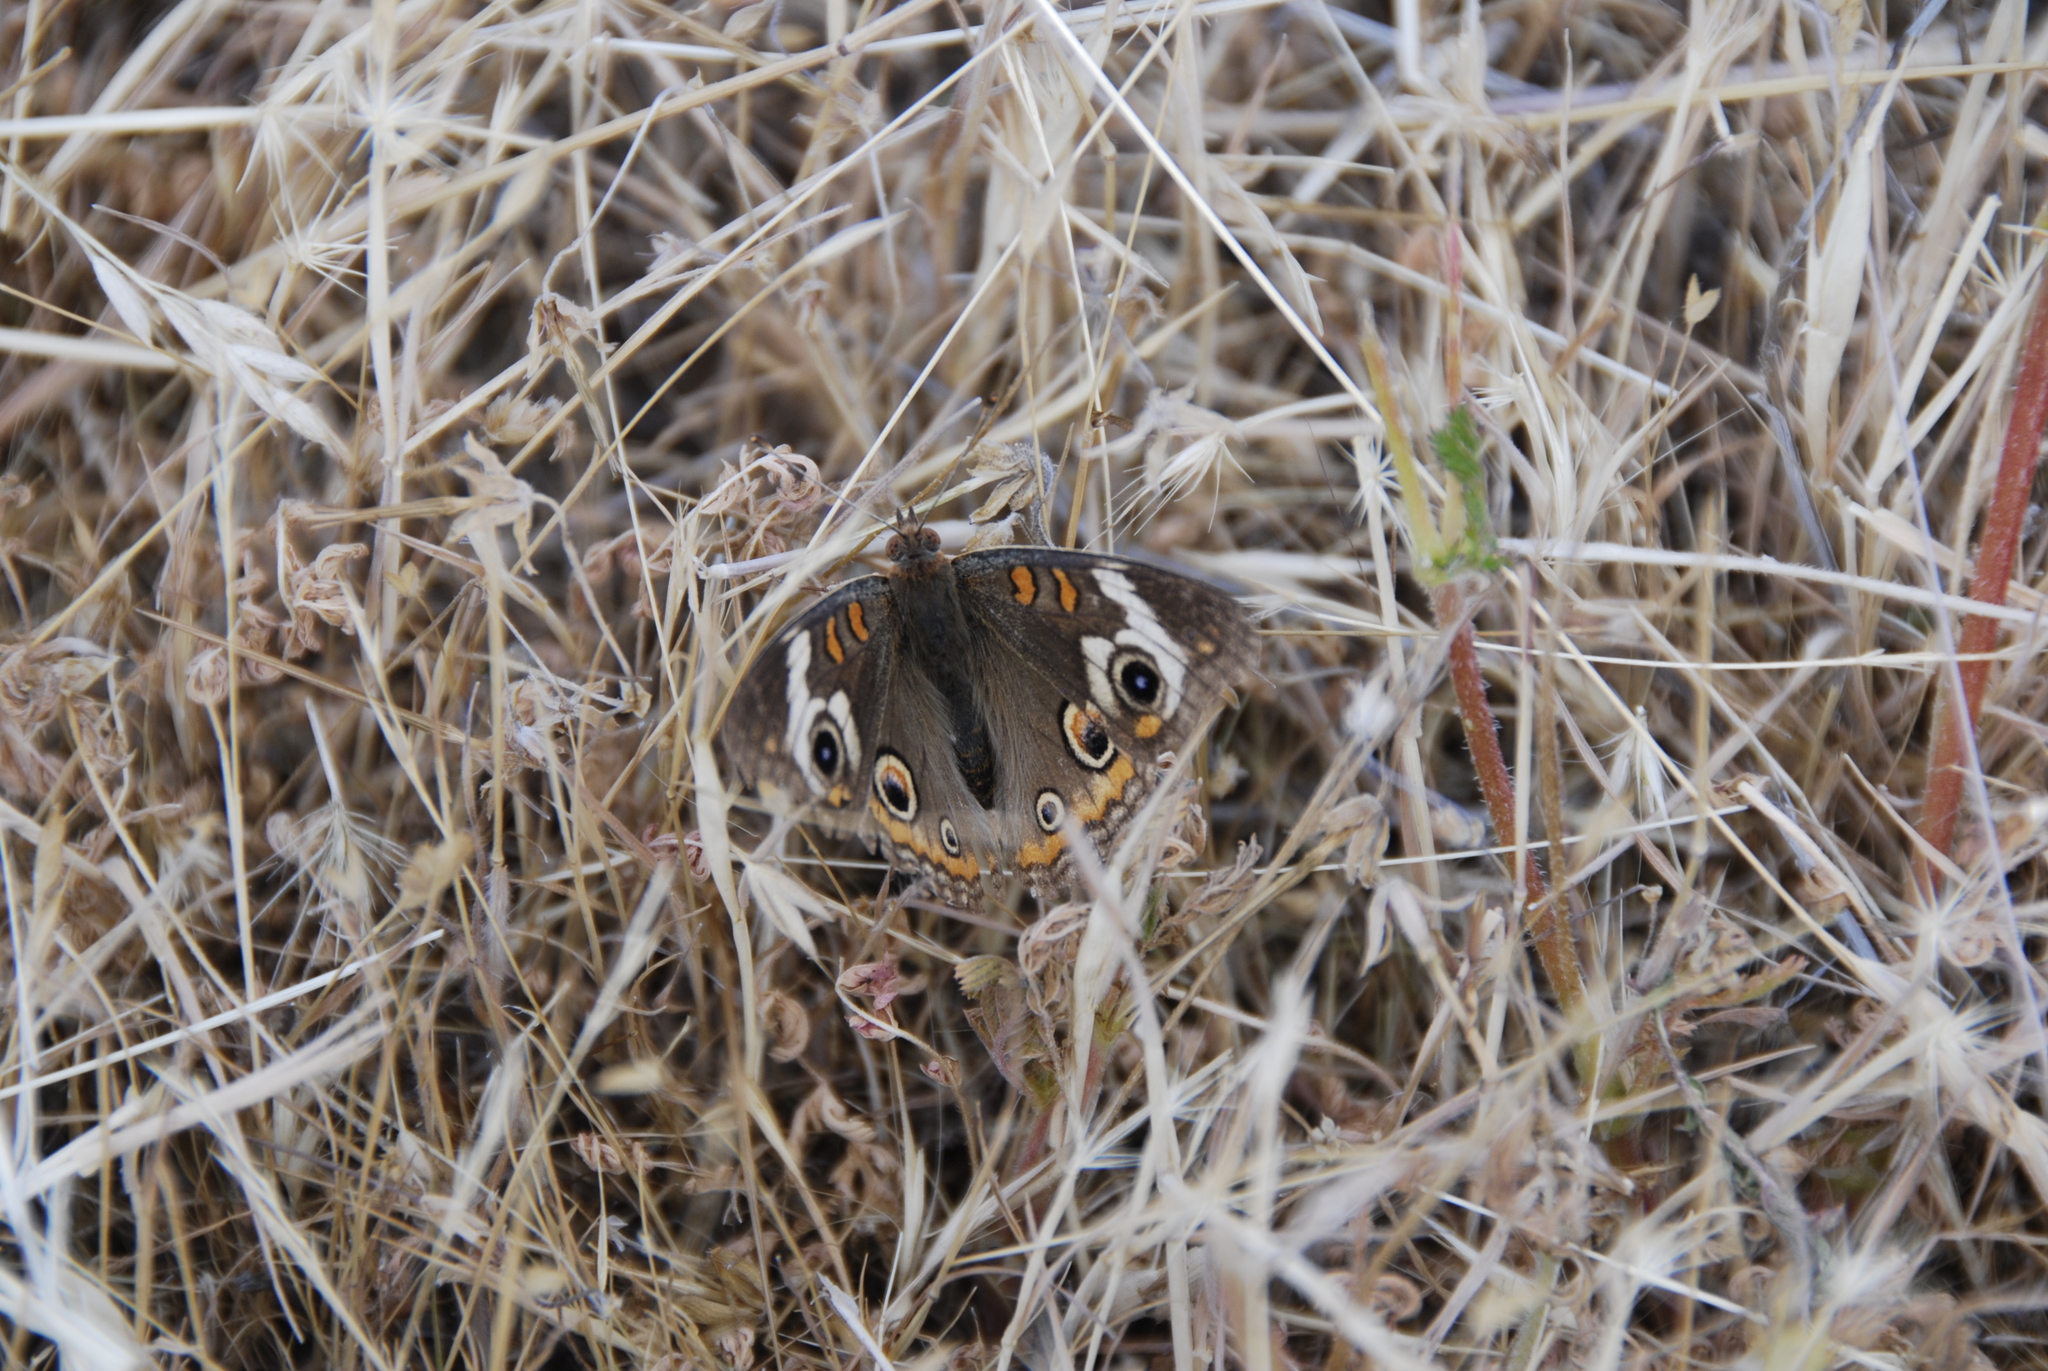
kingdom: Animalia
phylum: Arthropoda
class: Insecta
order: Lepidoptera
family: Nymphalidae
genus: Junonia
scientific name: Junonia grisea
